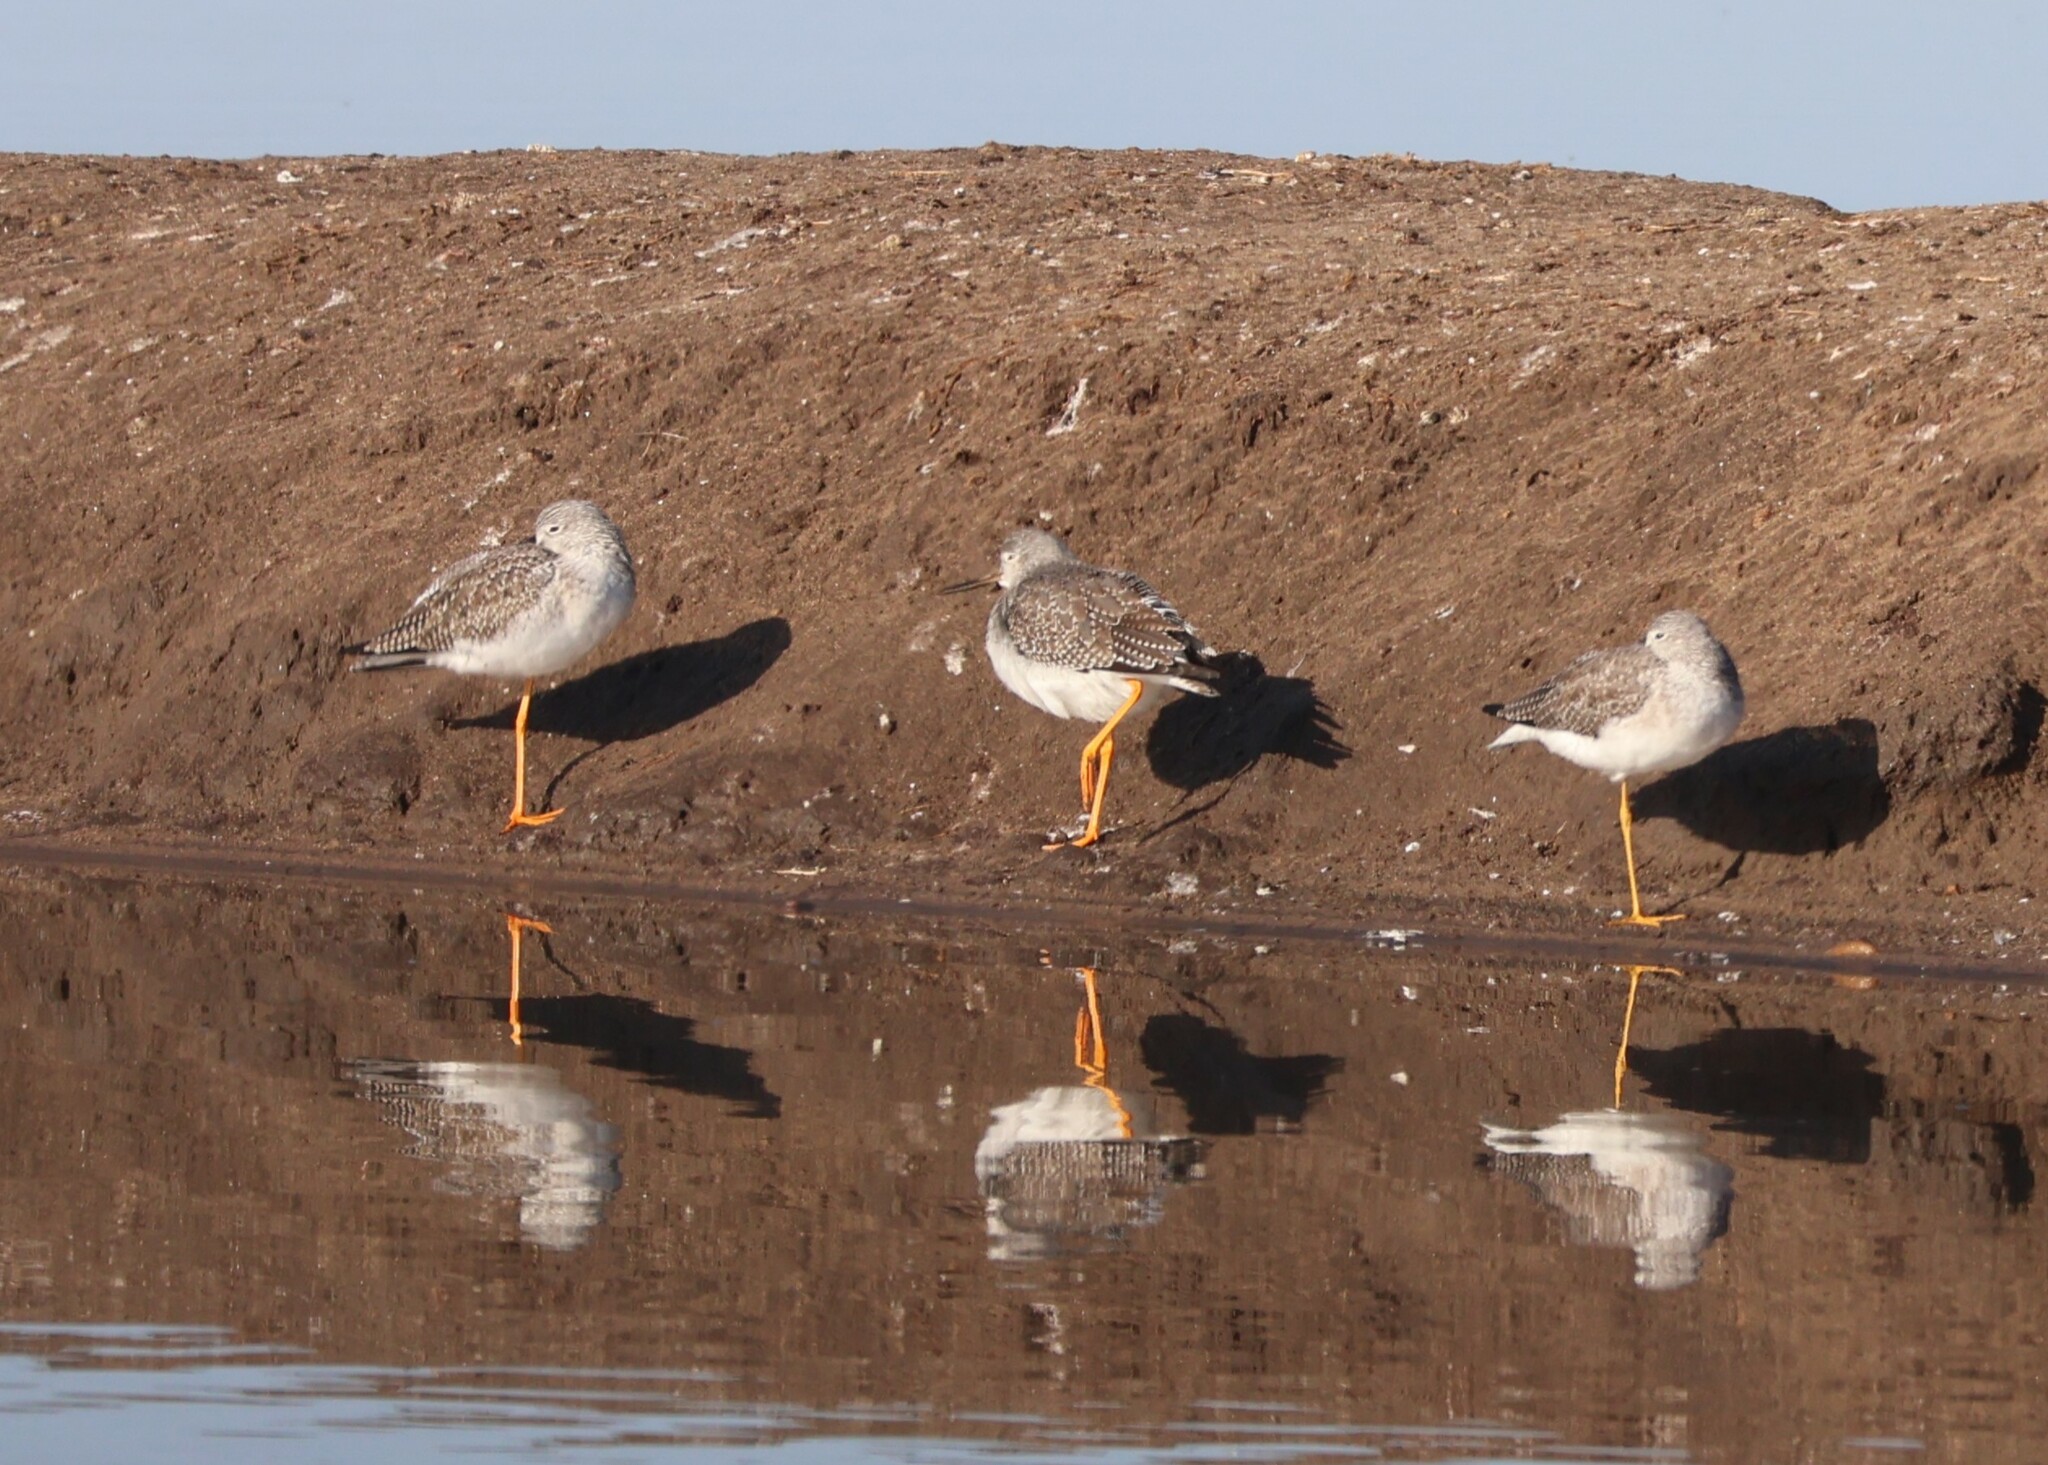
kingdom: Animalia
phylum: Chordata
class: Aves
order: Charadriiformes
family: Scolopacidae
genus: Tringa
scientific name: Tringa melanoleuca
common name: Greater yellowlegs
